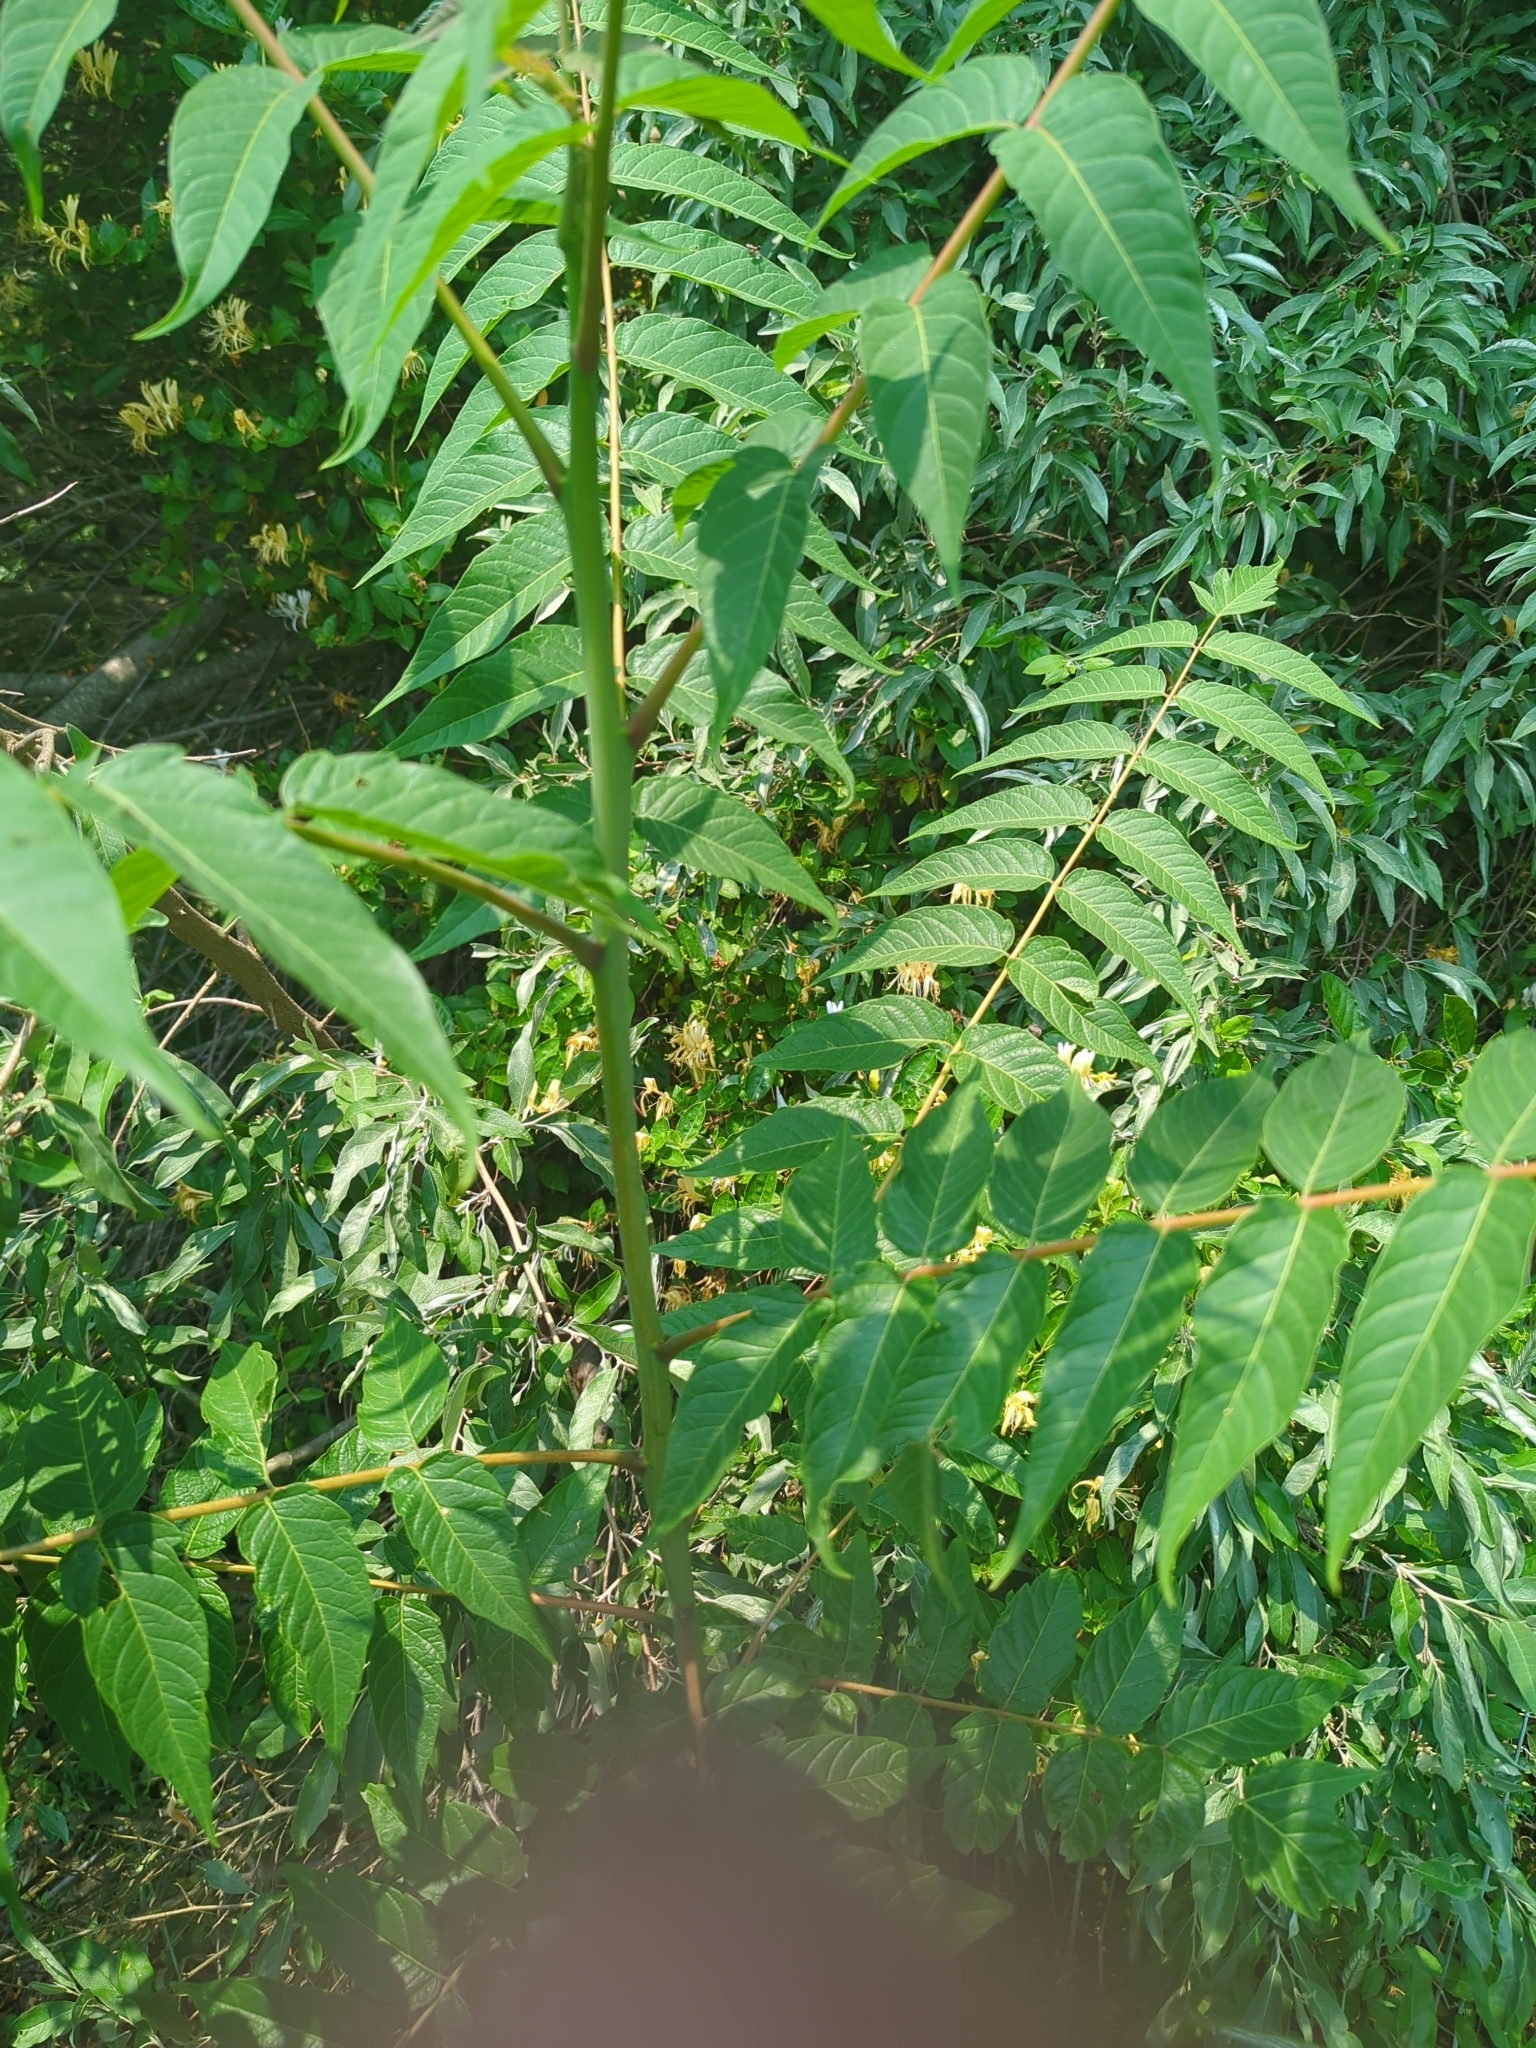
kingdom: Plantae
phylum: Tracheophyta
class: Magnoliopsida
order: Sapindales
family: Simaroubaceae
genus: Ailanthus
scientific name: Ailanthus altissima
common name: Tree-of-heaven
